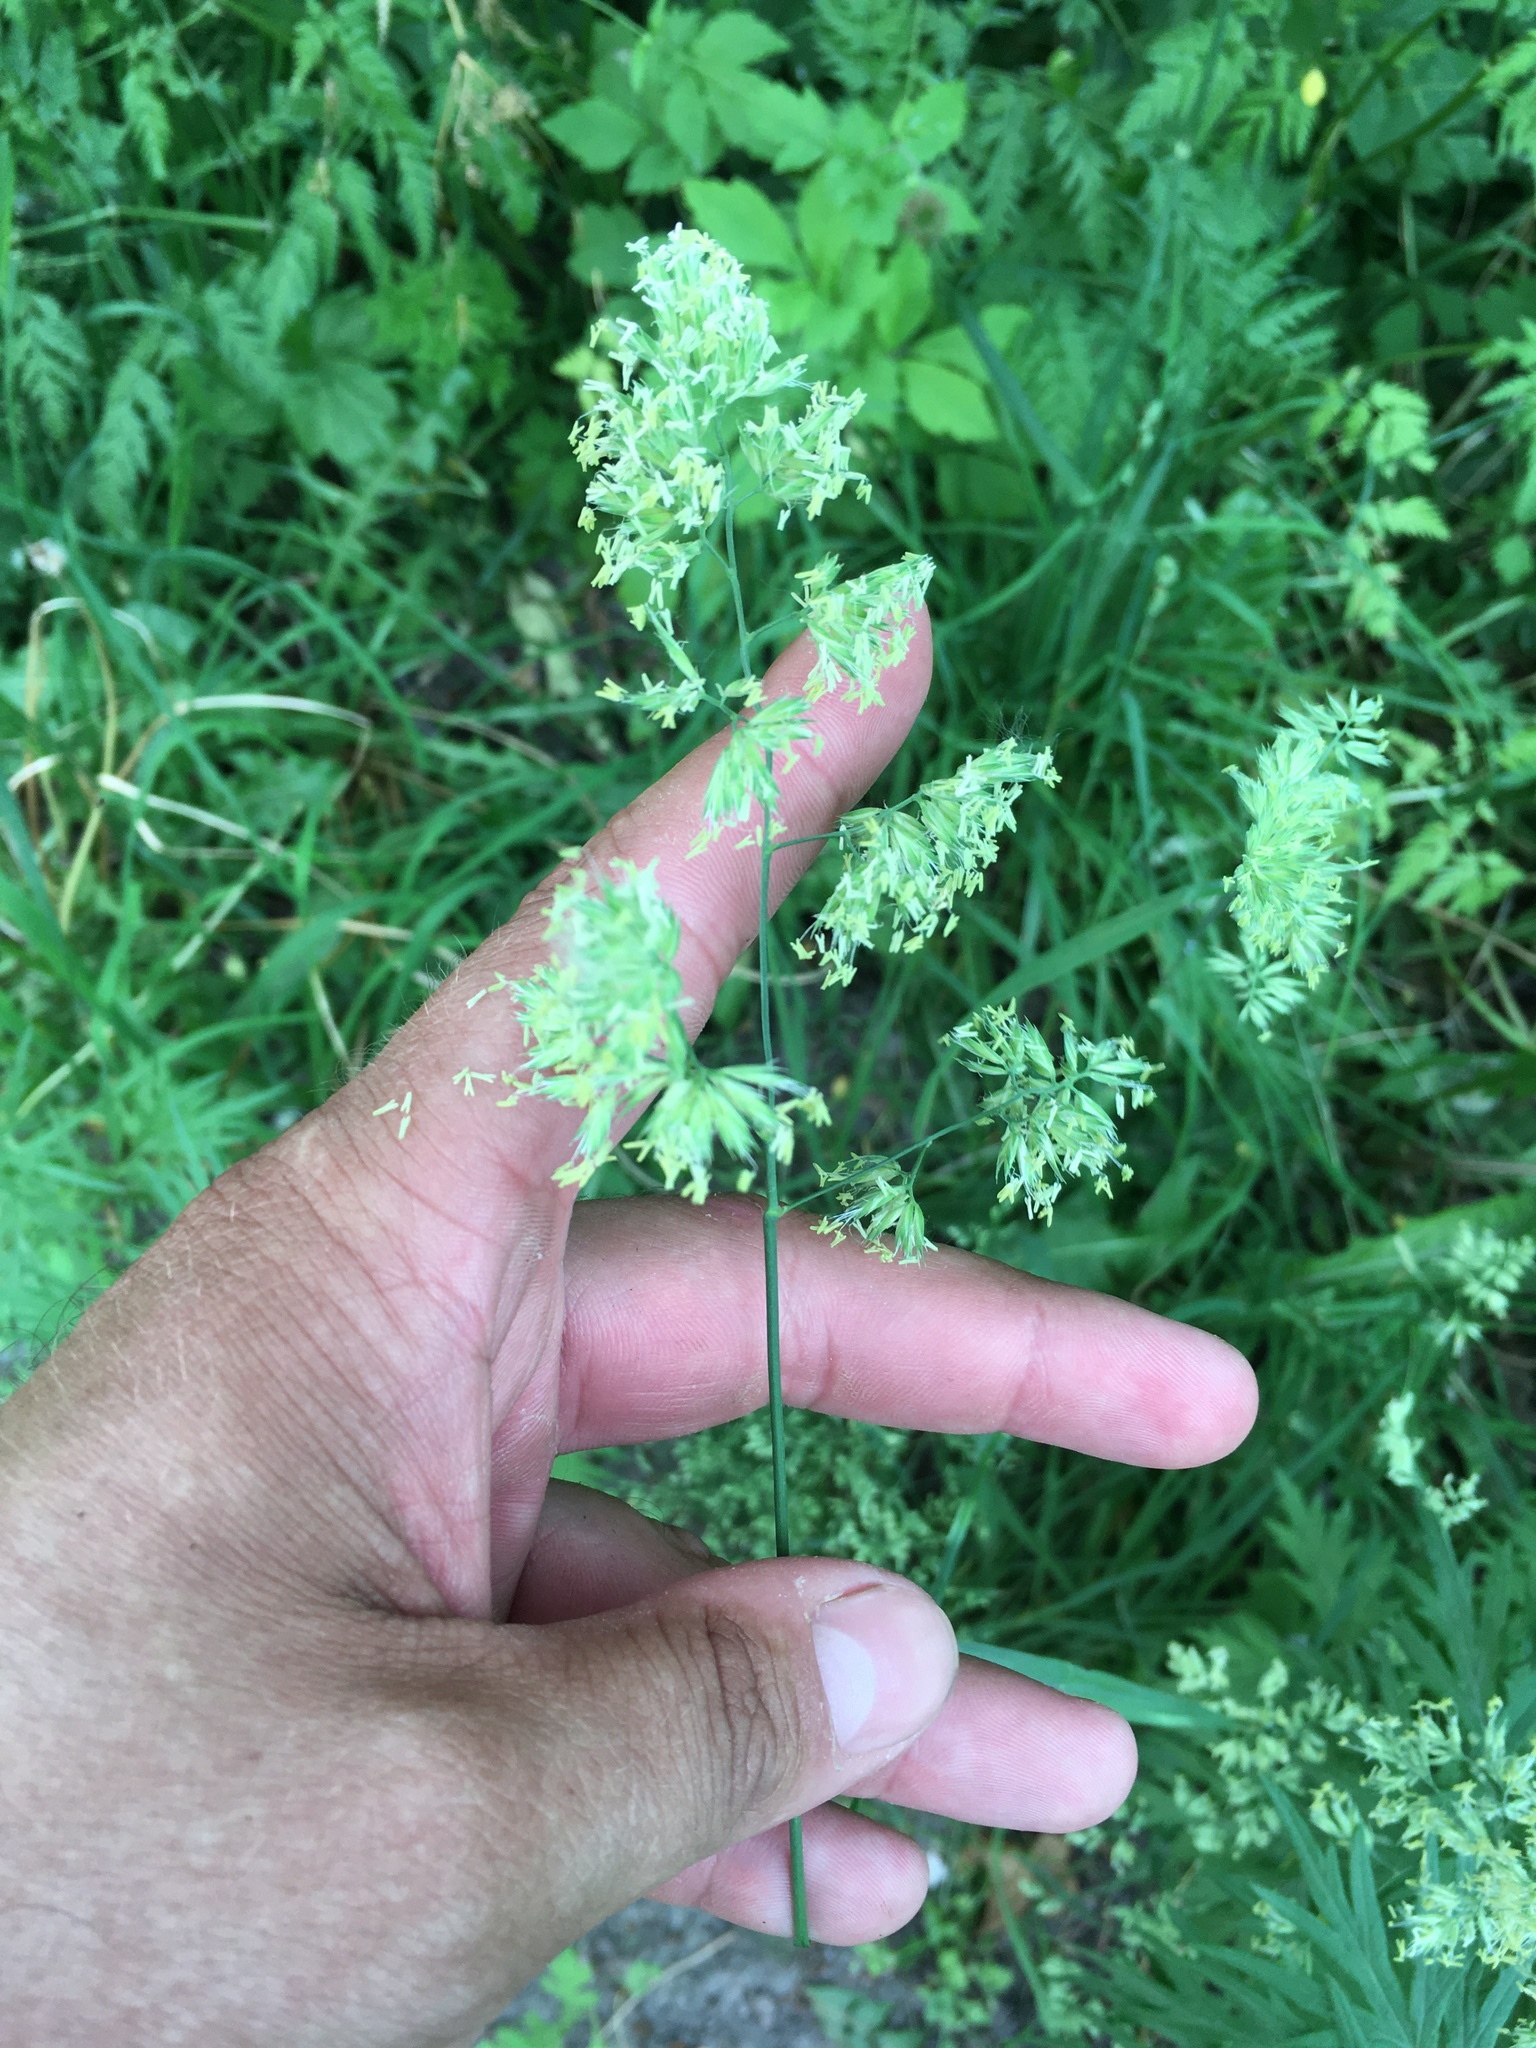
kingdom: Plantae
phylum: Tracheophyta
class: Liliopsida
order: Poales
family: Poaceae
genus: Dactylis
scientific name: Dactylis glomerata
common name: Orchardgrass
